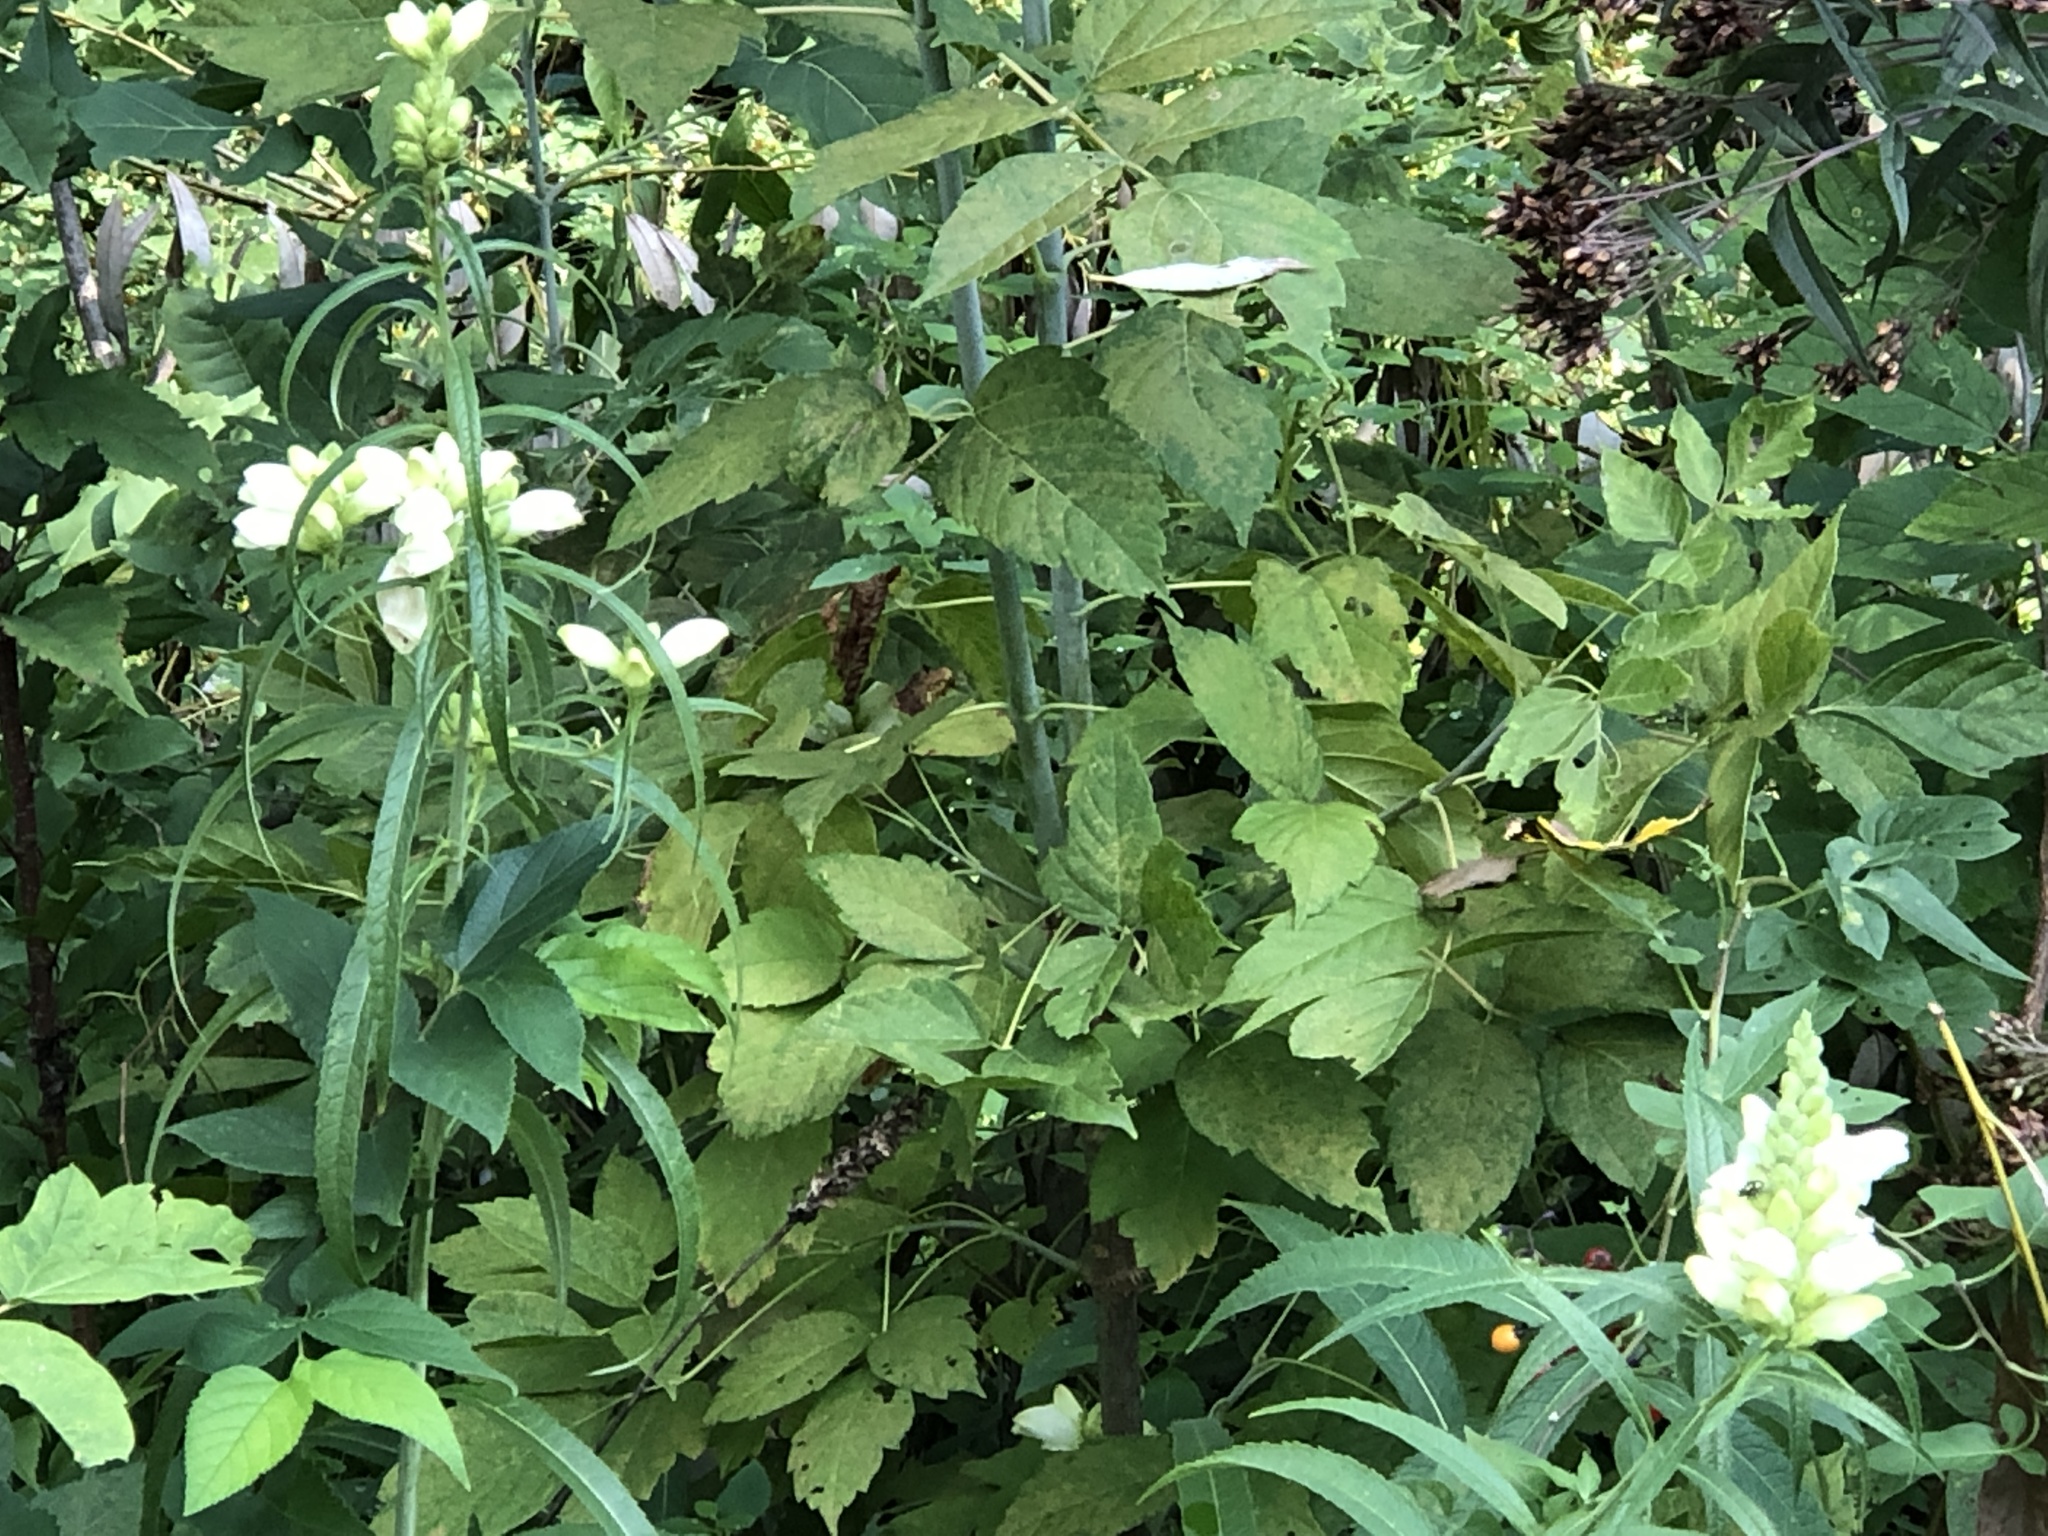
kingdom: Plantae
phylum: Tracheophyta
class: Magnoliopsida
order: Lamiales
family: Plantaginaceae
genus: Chelone
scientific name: Chelone glabra
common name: Snakehead
